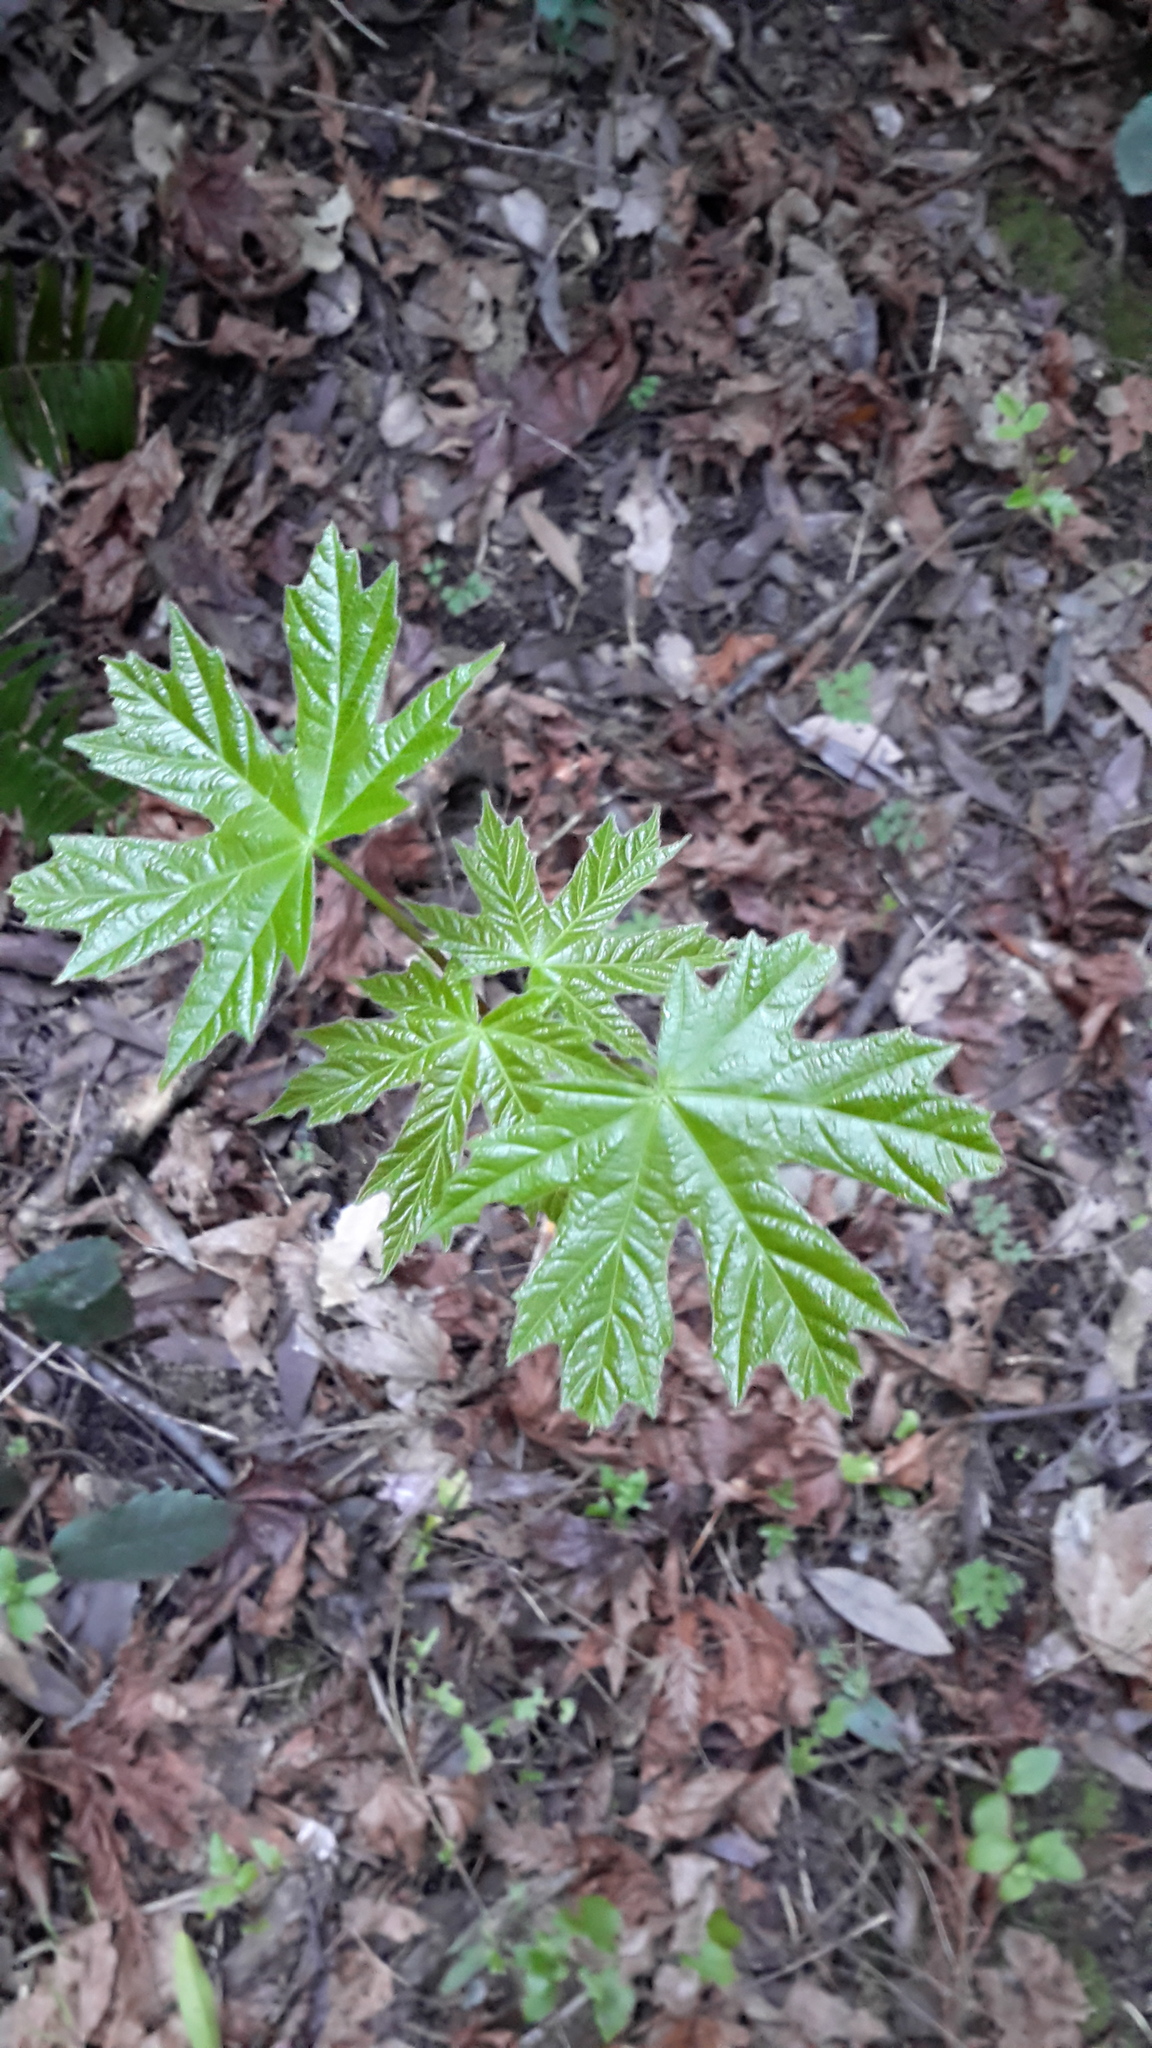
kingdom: Plantae
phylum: Tracheophyta
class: Magnoliopsida
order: Sapindales
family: Sapindaceae
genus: Acer
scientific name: Acer macrophyllum
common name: Oregon maple
